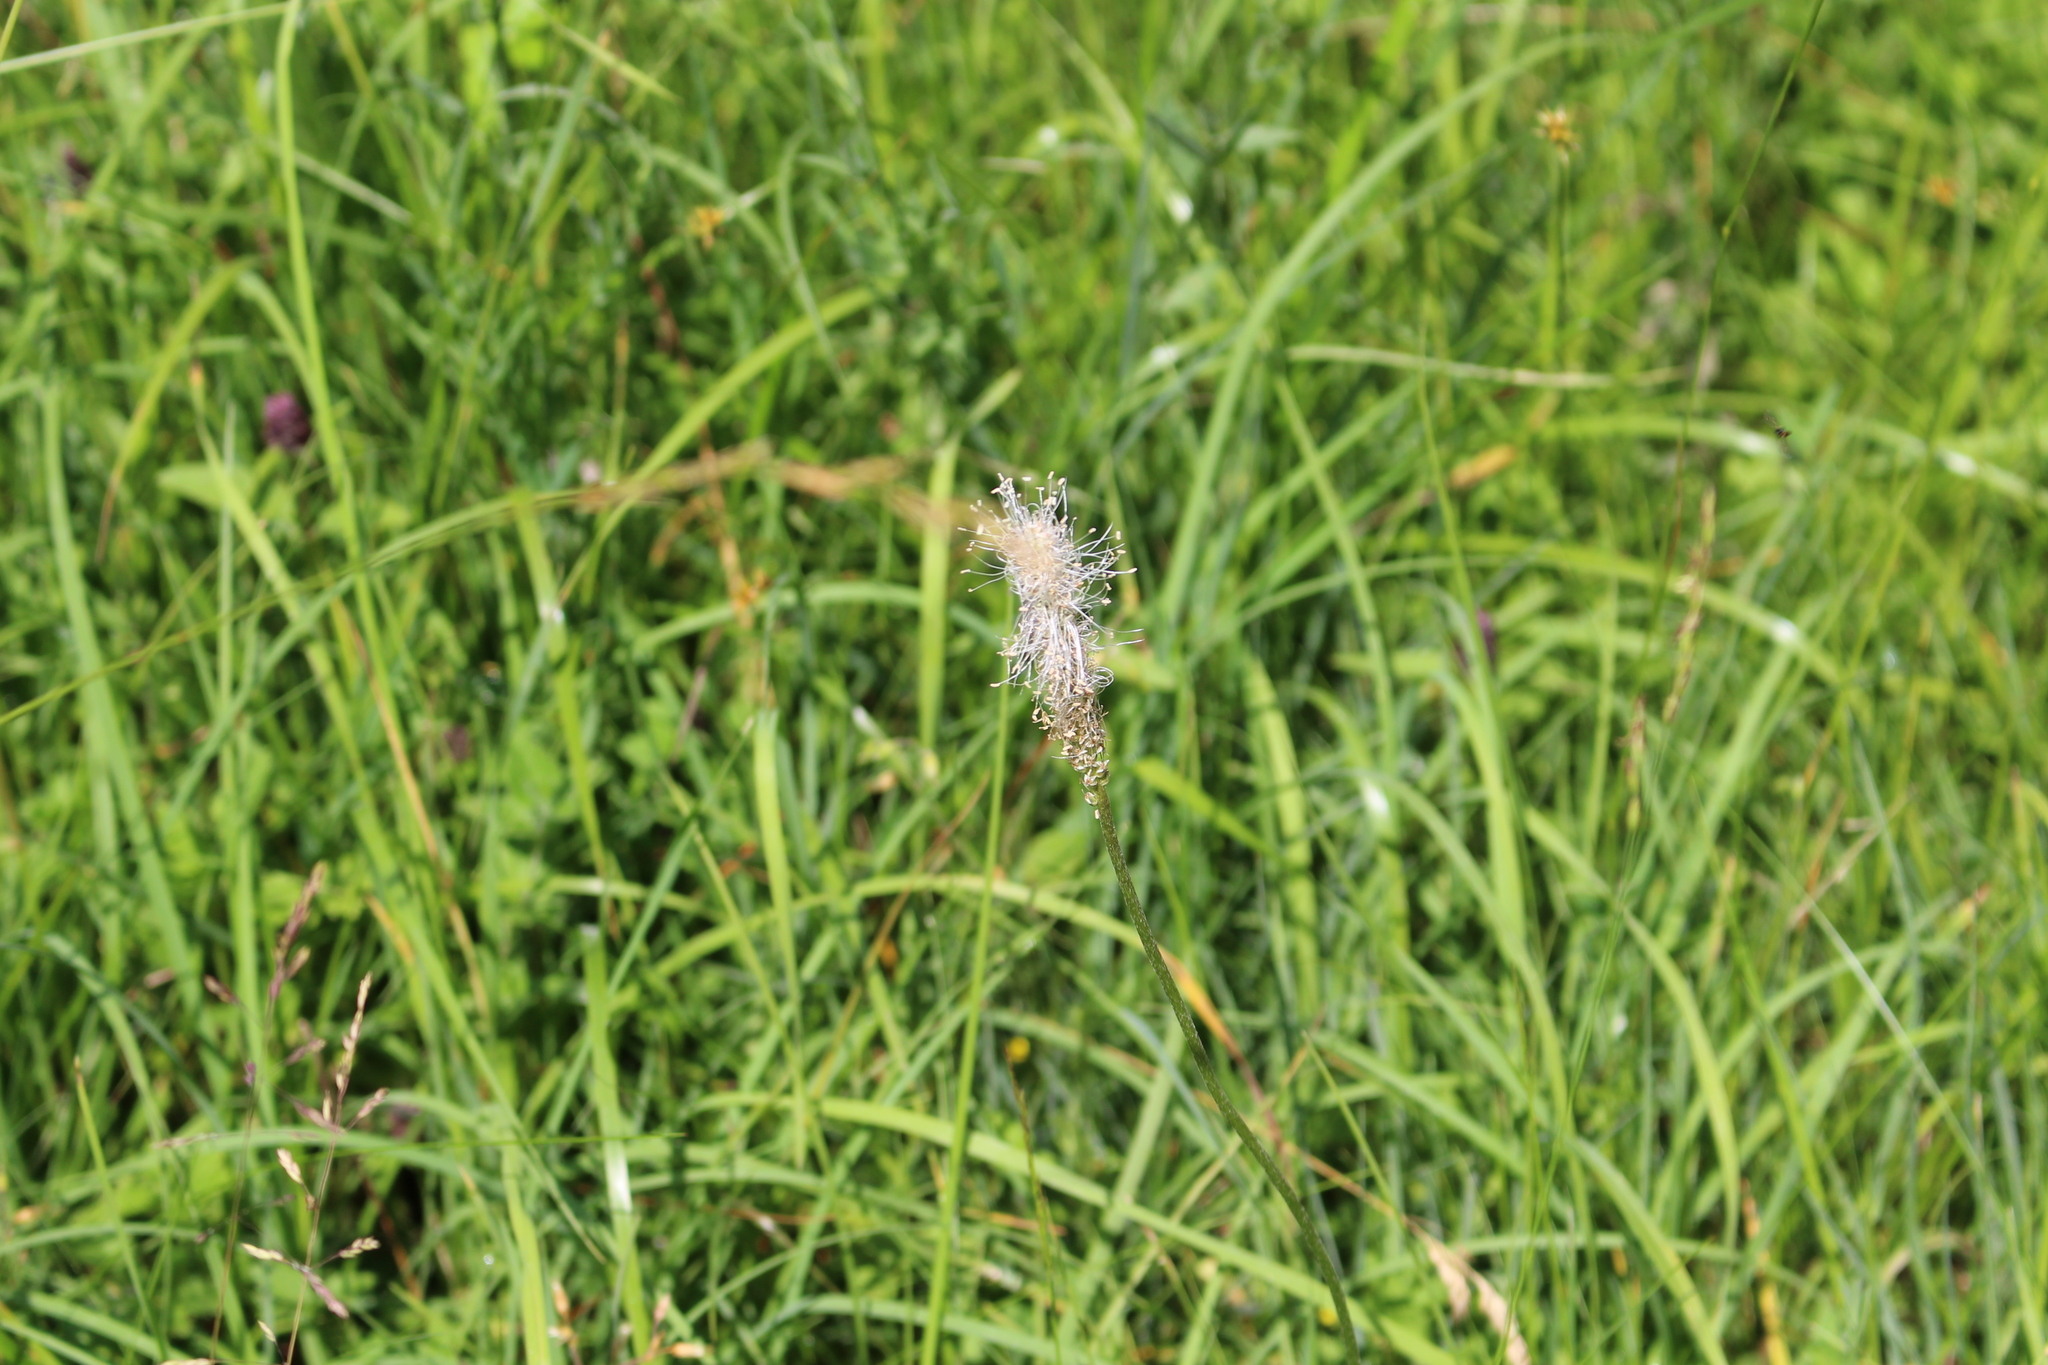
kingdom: Plantae
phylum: Tracheophyta
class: Magnoliopsida
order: Lamiales
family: Plantaginaceae
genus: Plantago
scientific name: Plantago media
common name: Hoary plantain
